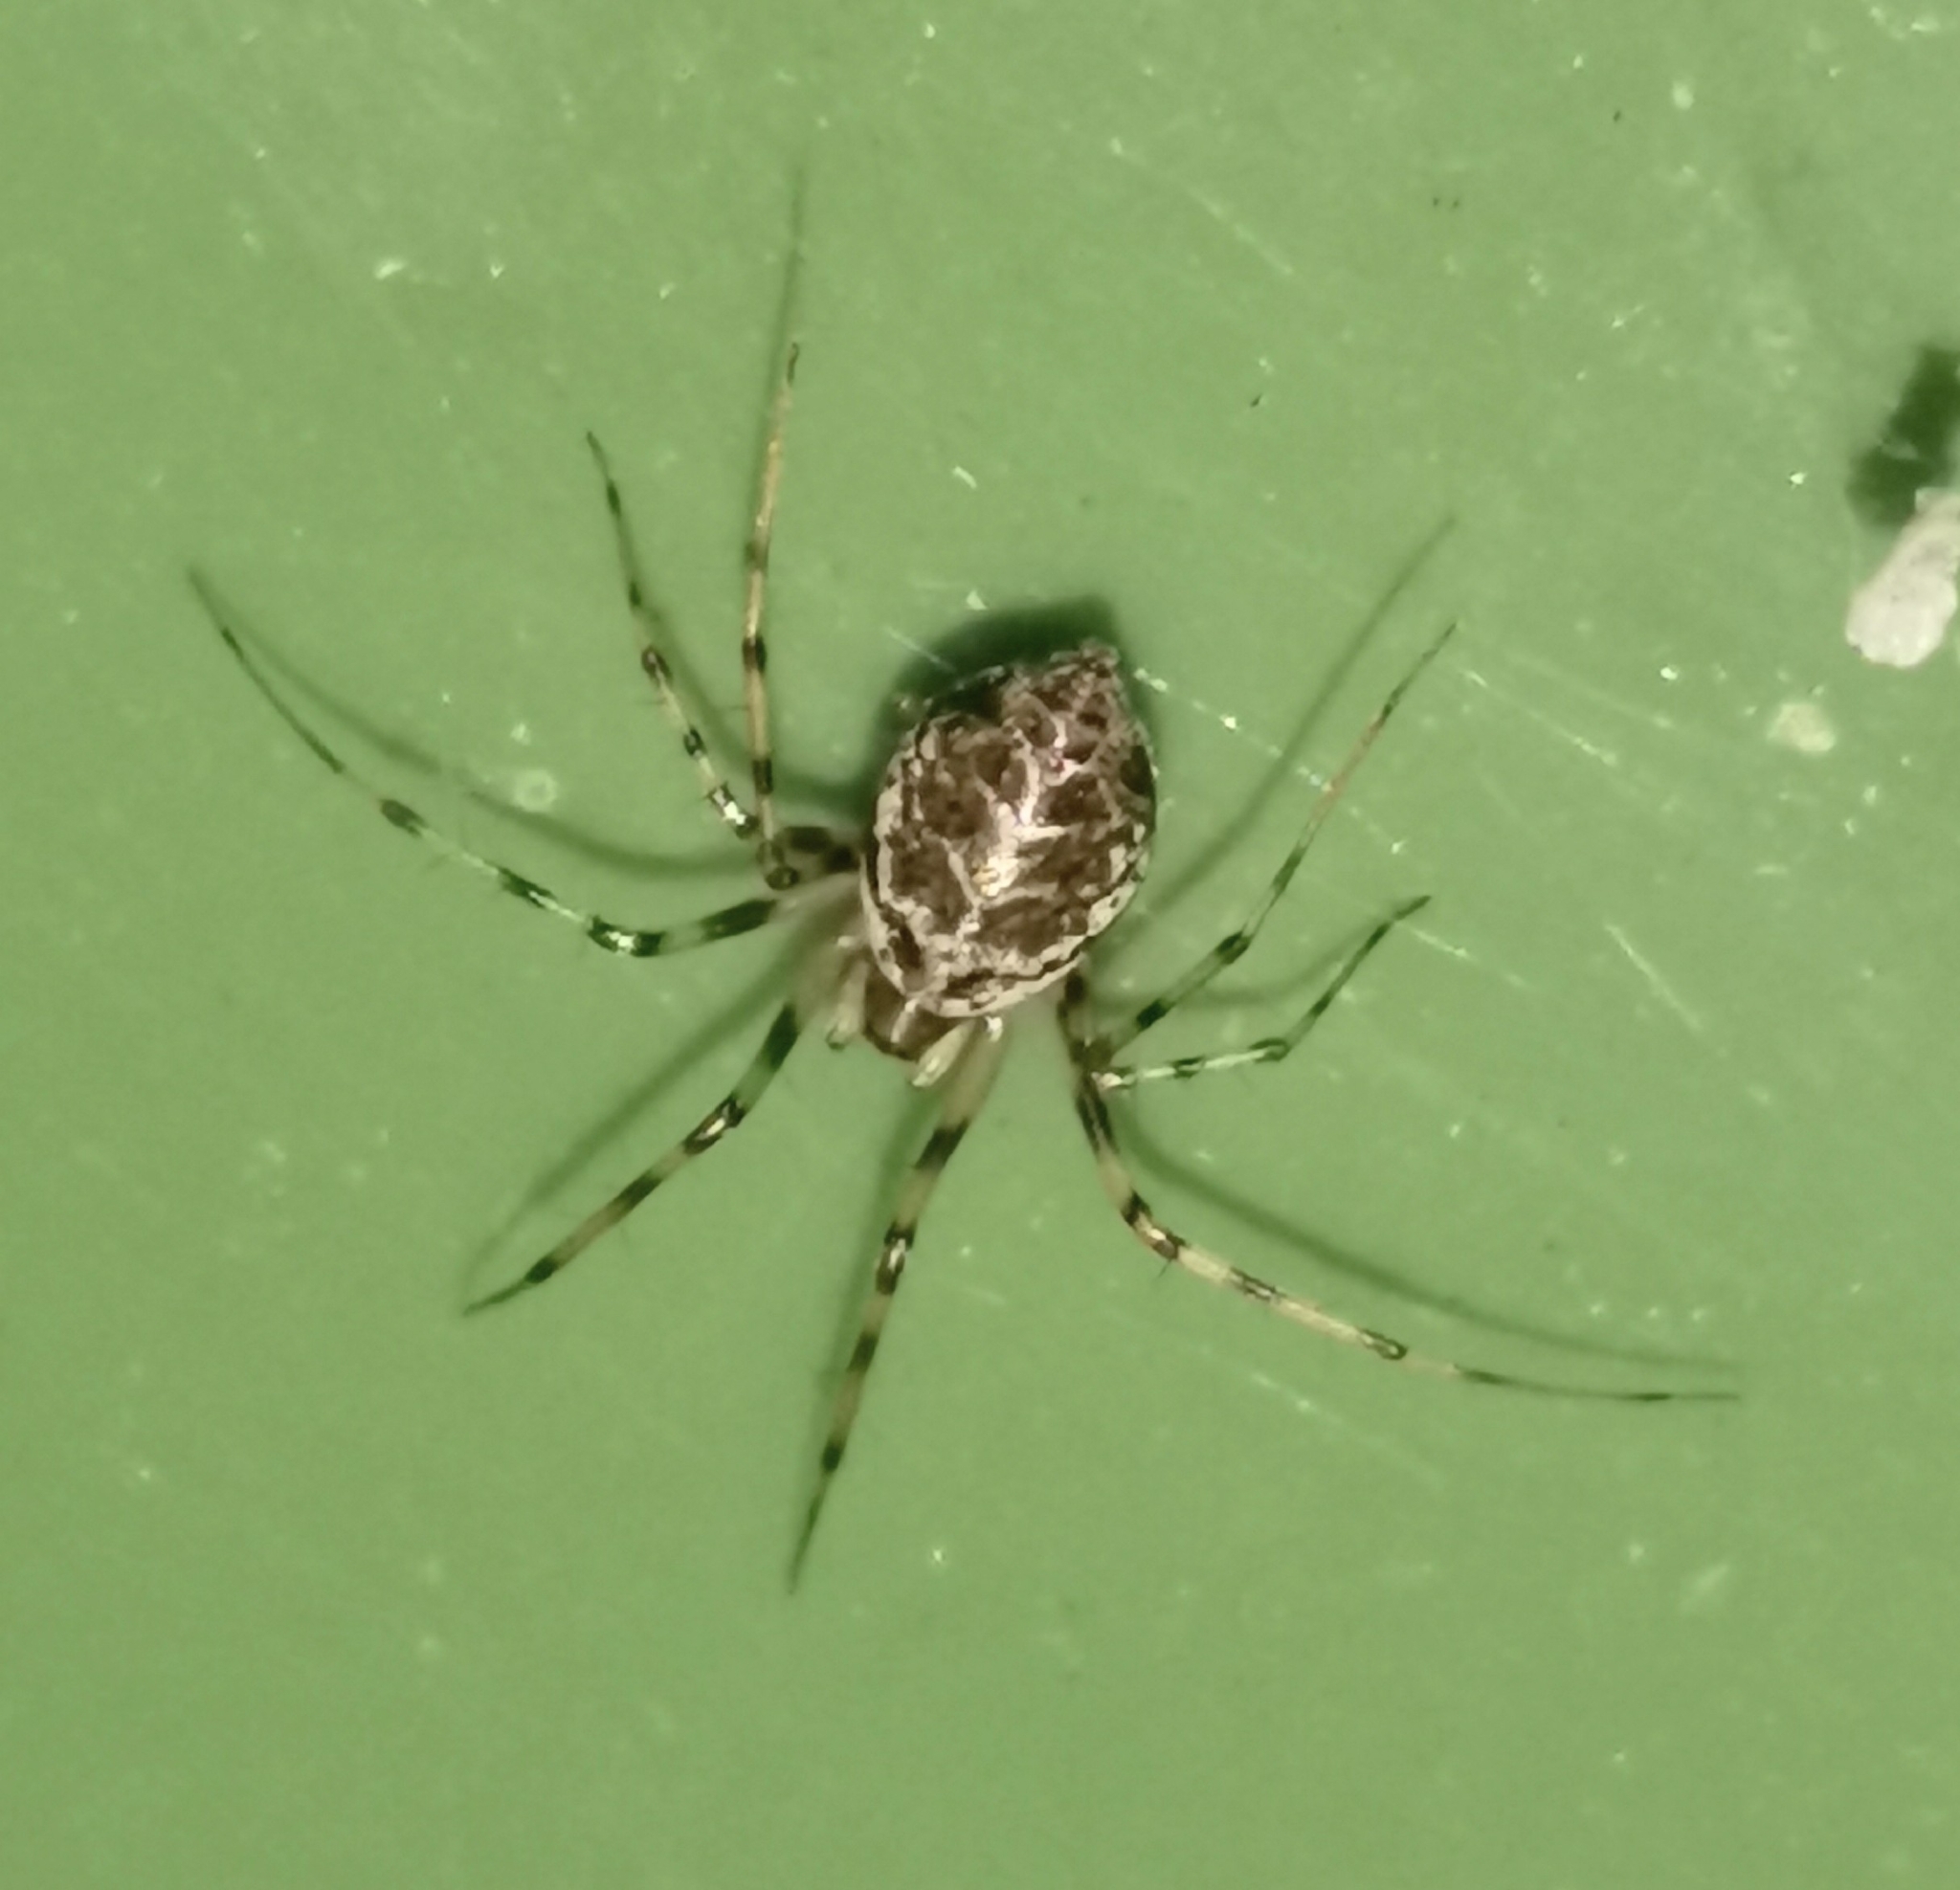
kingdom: Animalia
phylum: Arthropoda
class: Arachnida
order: Araneae
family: Linyphiidae
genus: Drapetisca
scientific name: Drapetisca socialis
